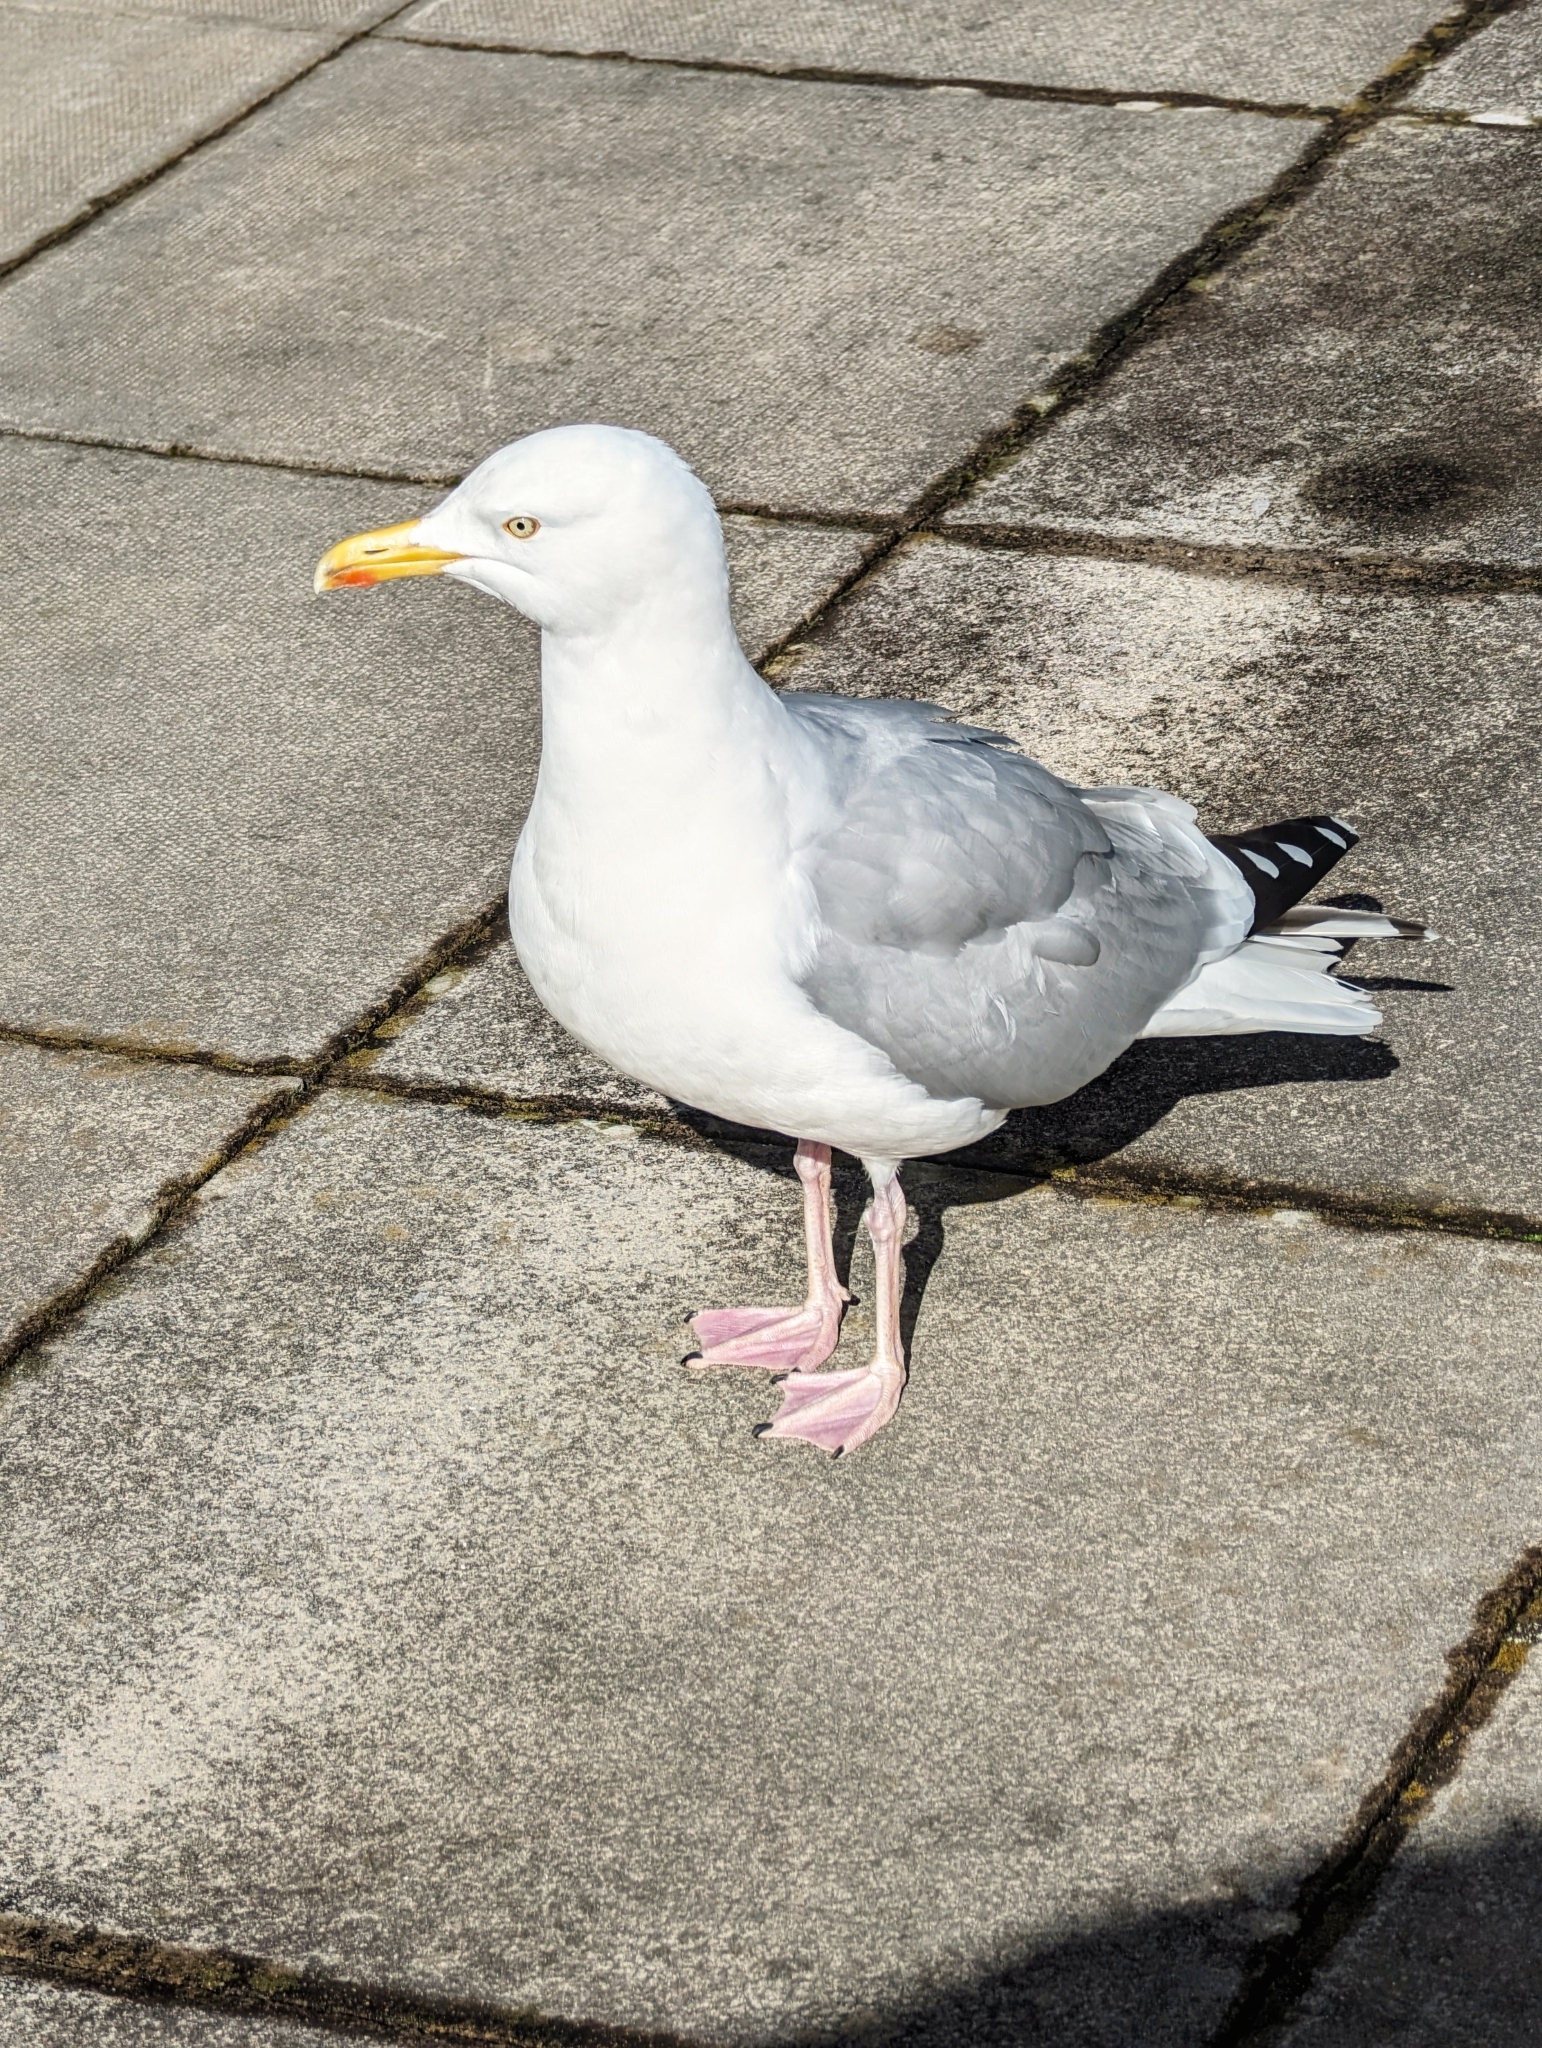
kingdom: Animalia
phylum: Chordata
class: Aves
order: Charadriiformes
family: Laridae
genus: Larus
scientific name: Larus argentatus
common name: Herring gull
